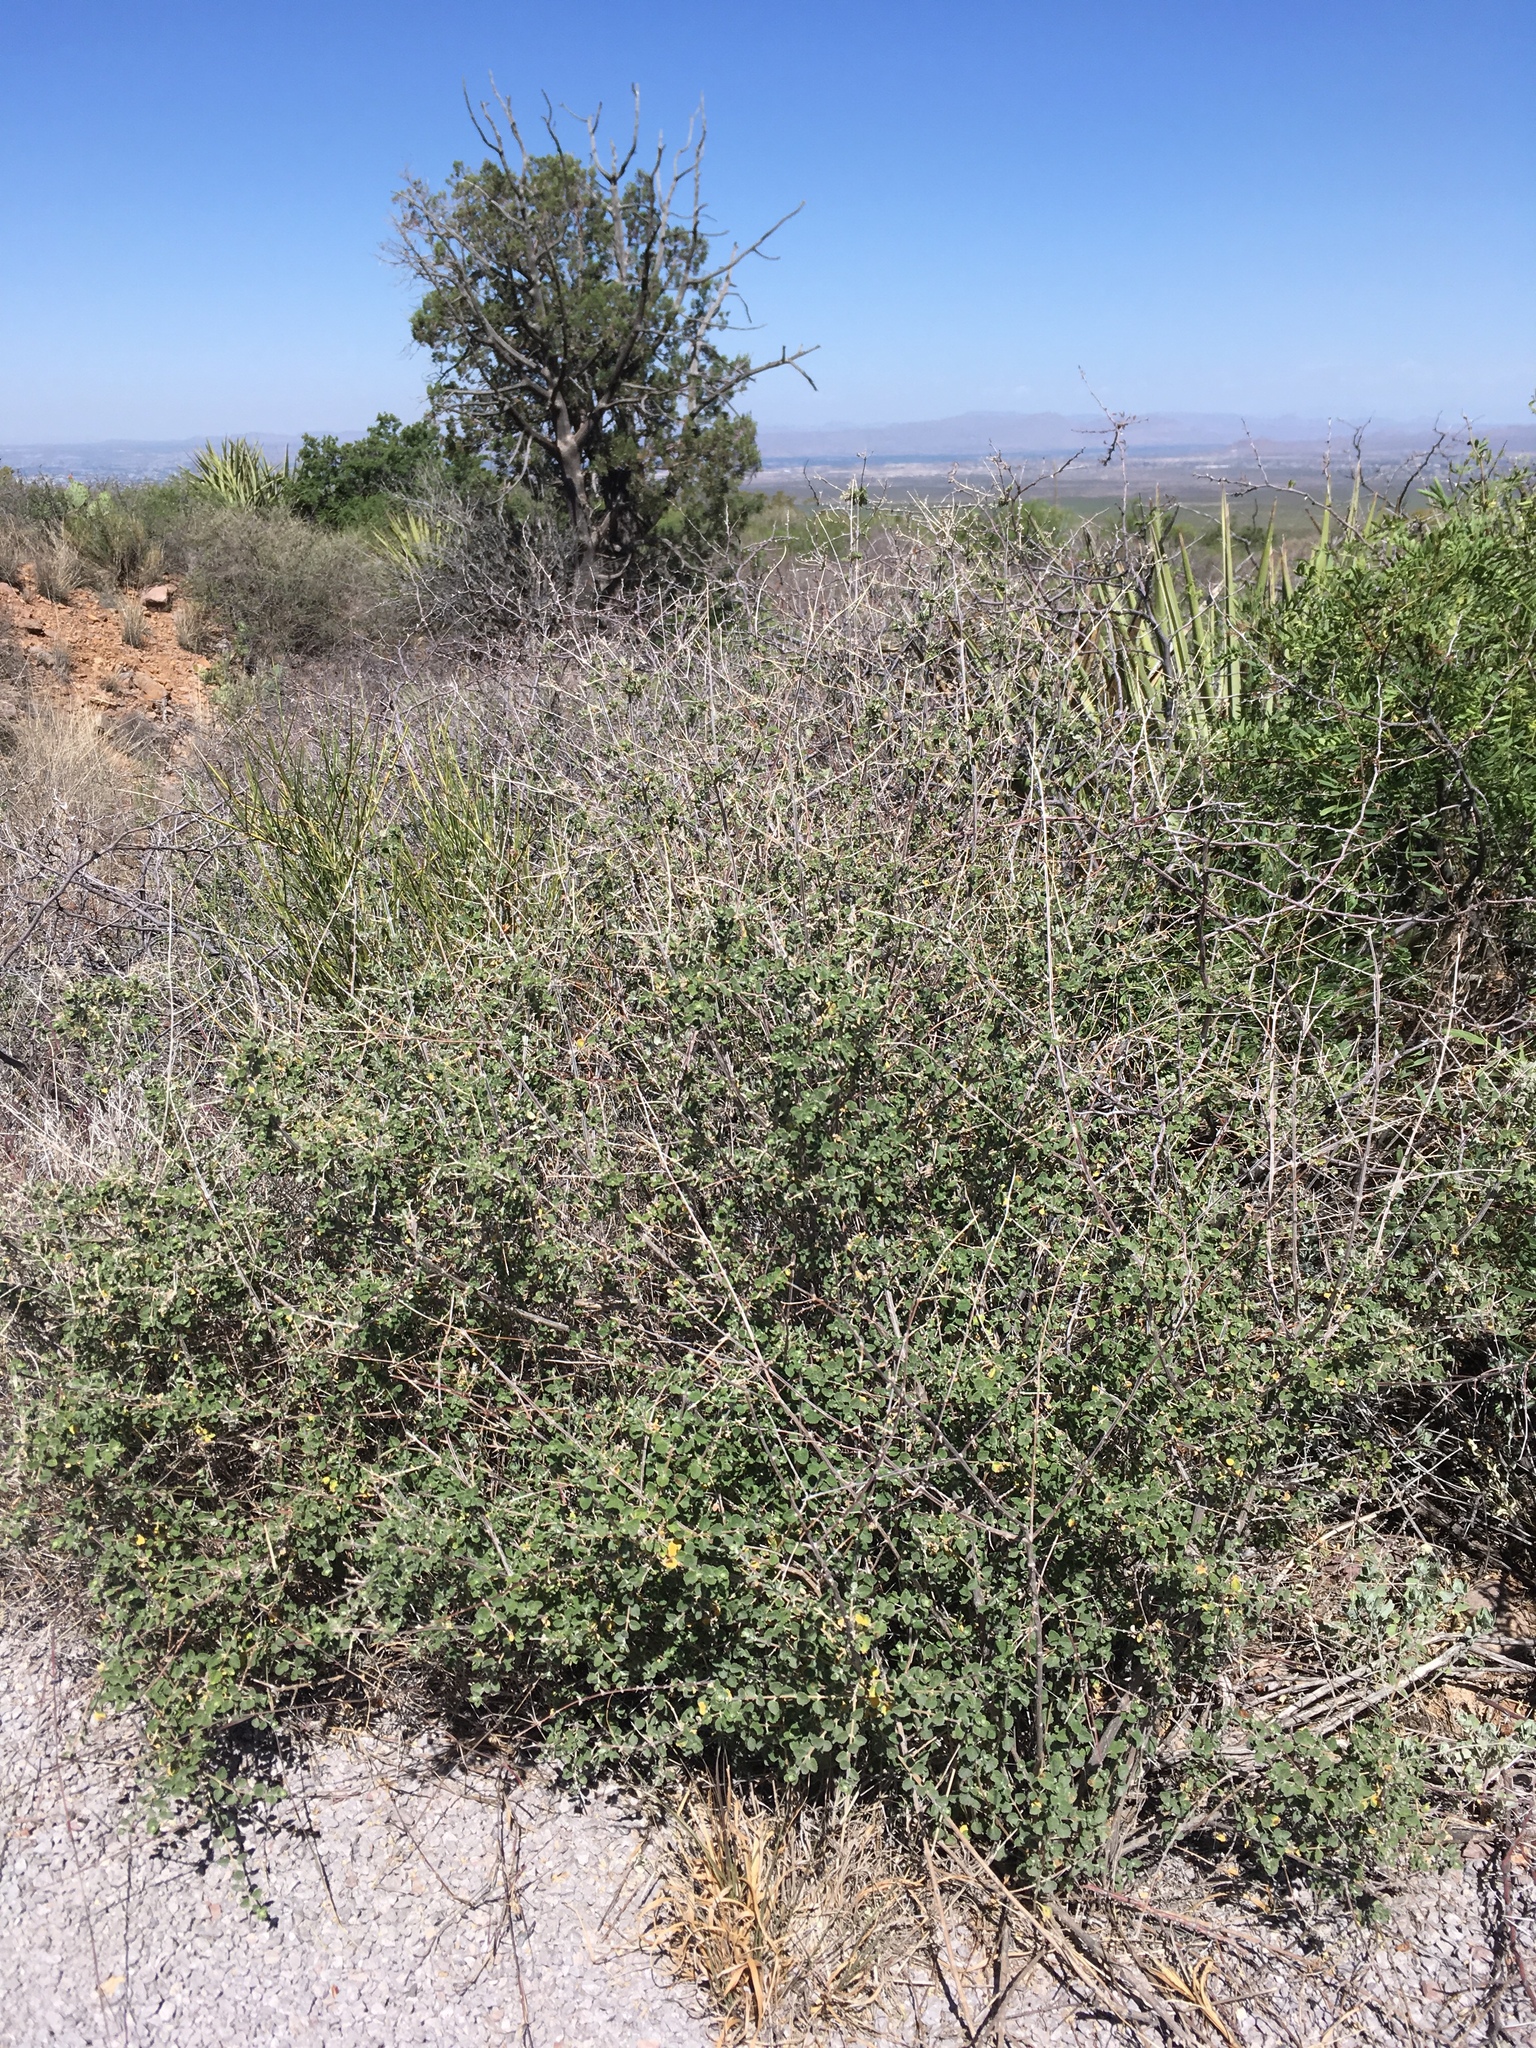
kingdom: Plantae
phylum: Tracheophyta
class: Magnoliopsida
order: Lamiales
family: Verbenaceae
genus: Aloysia
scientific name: Aloysia wrightii
